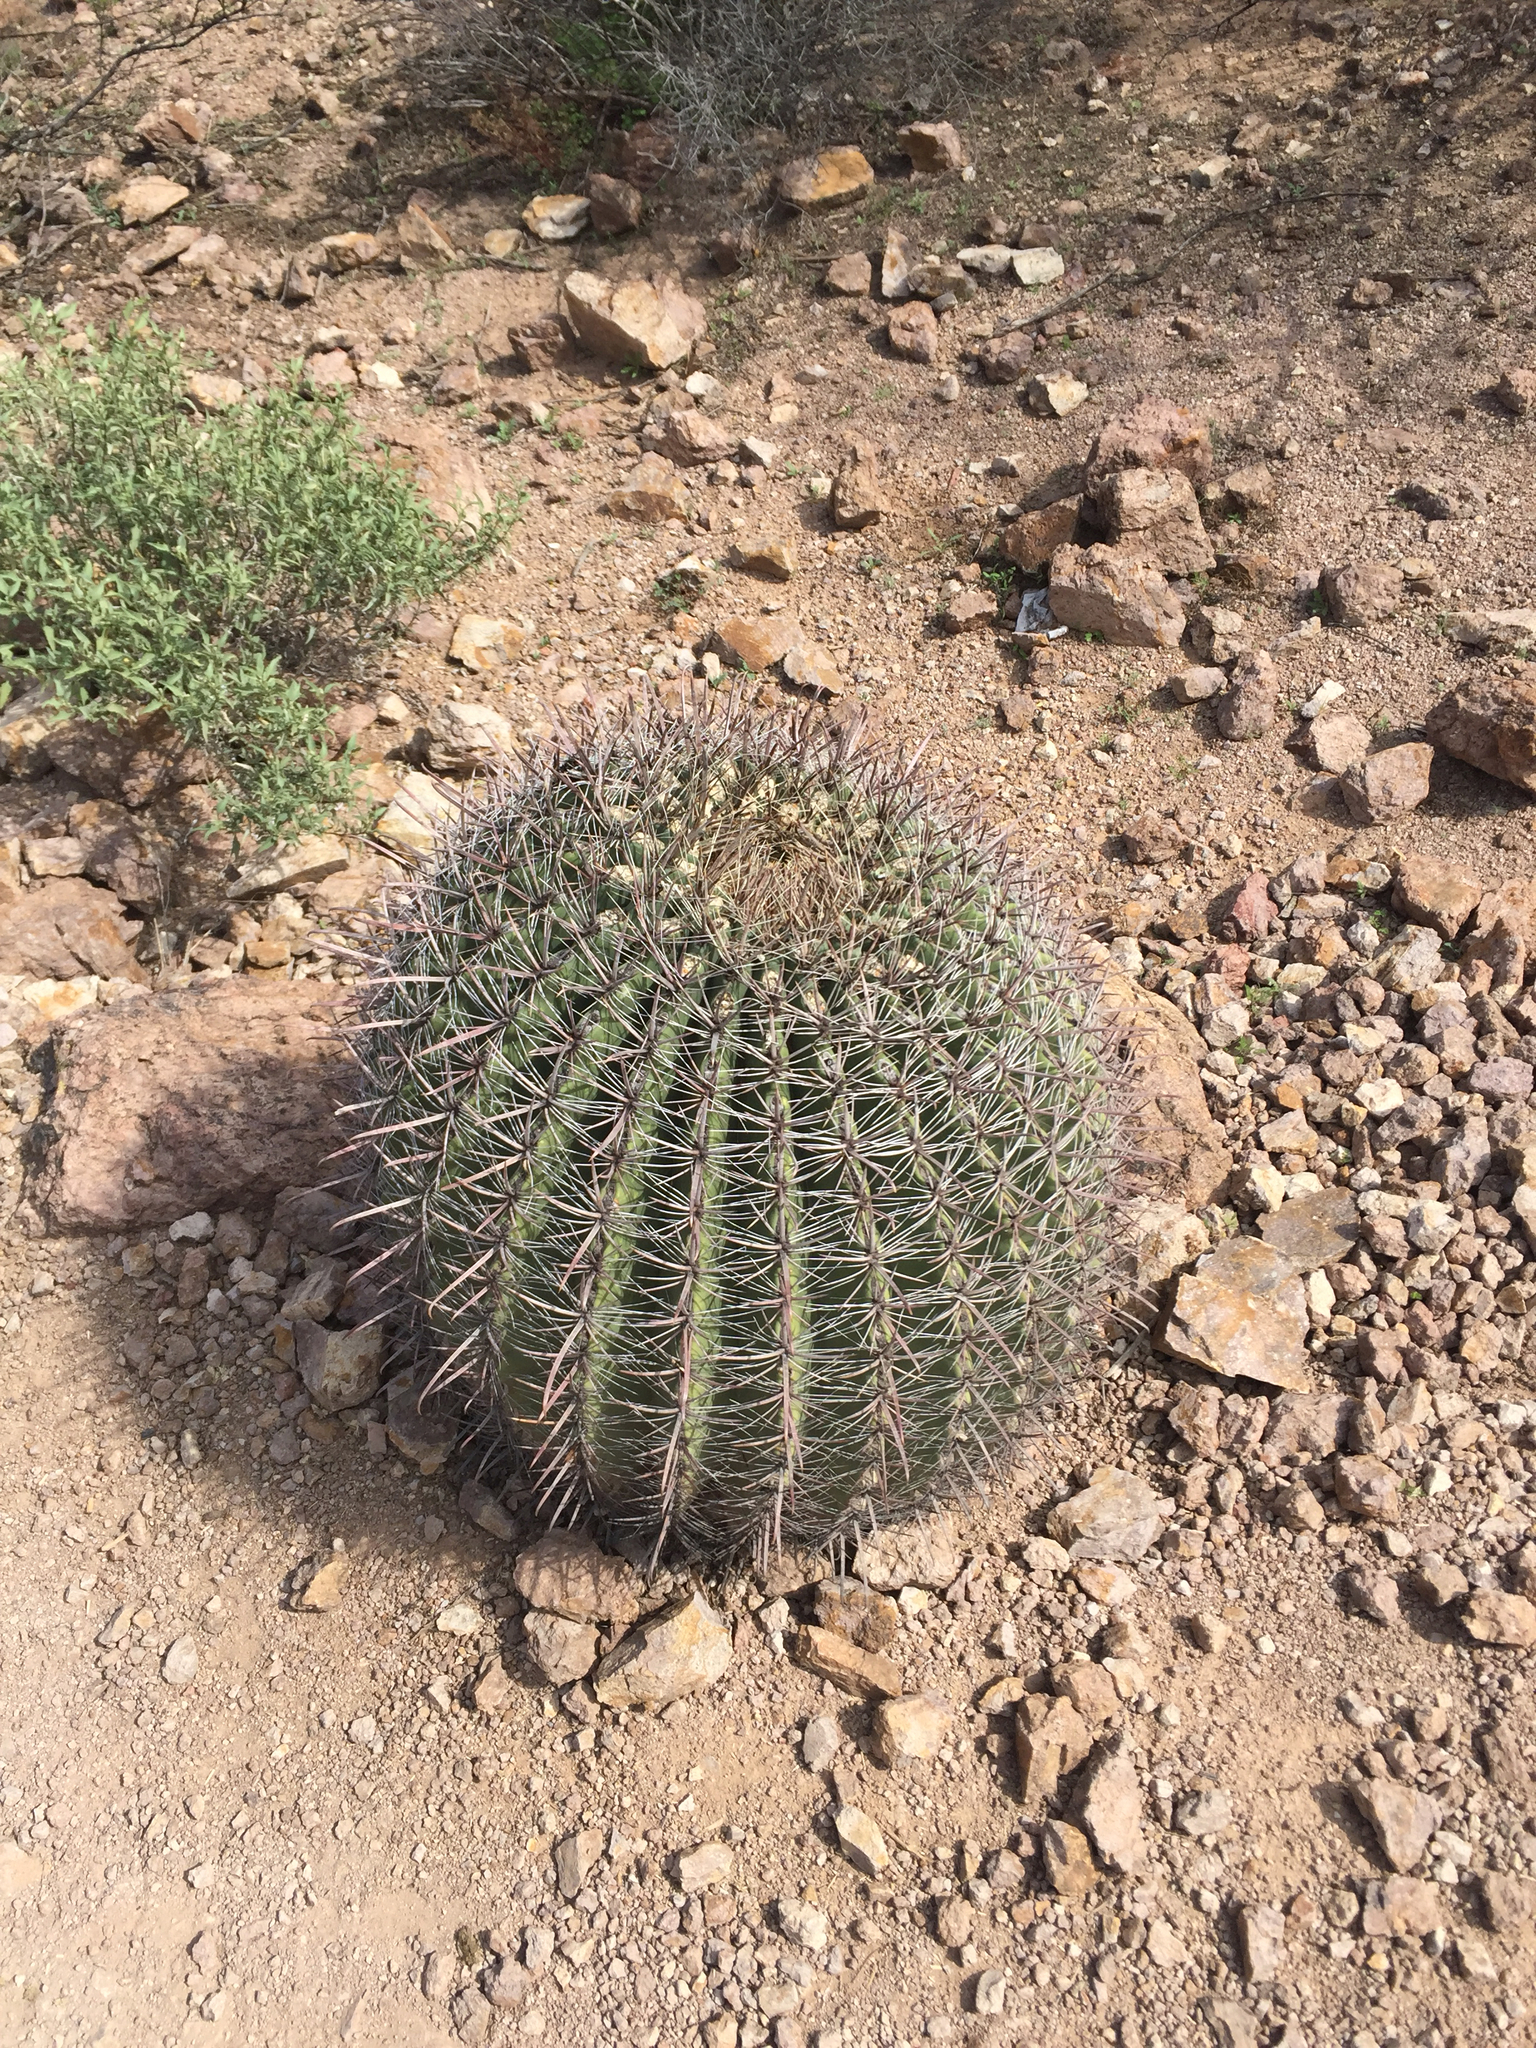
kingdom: Plantae
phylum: Tracheophyta
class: Magnoliopsida
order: Caryophyllales
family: Cactaceae
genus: Ferocactus
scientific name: Ferocactus wislizeni
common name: Candy barrel cactus
